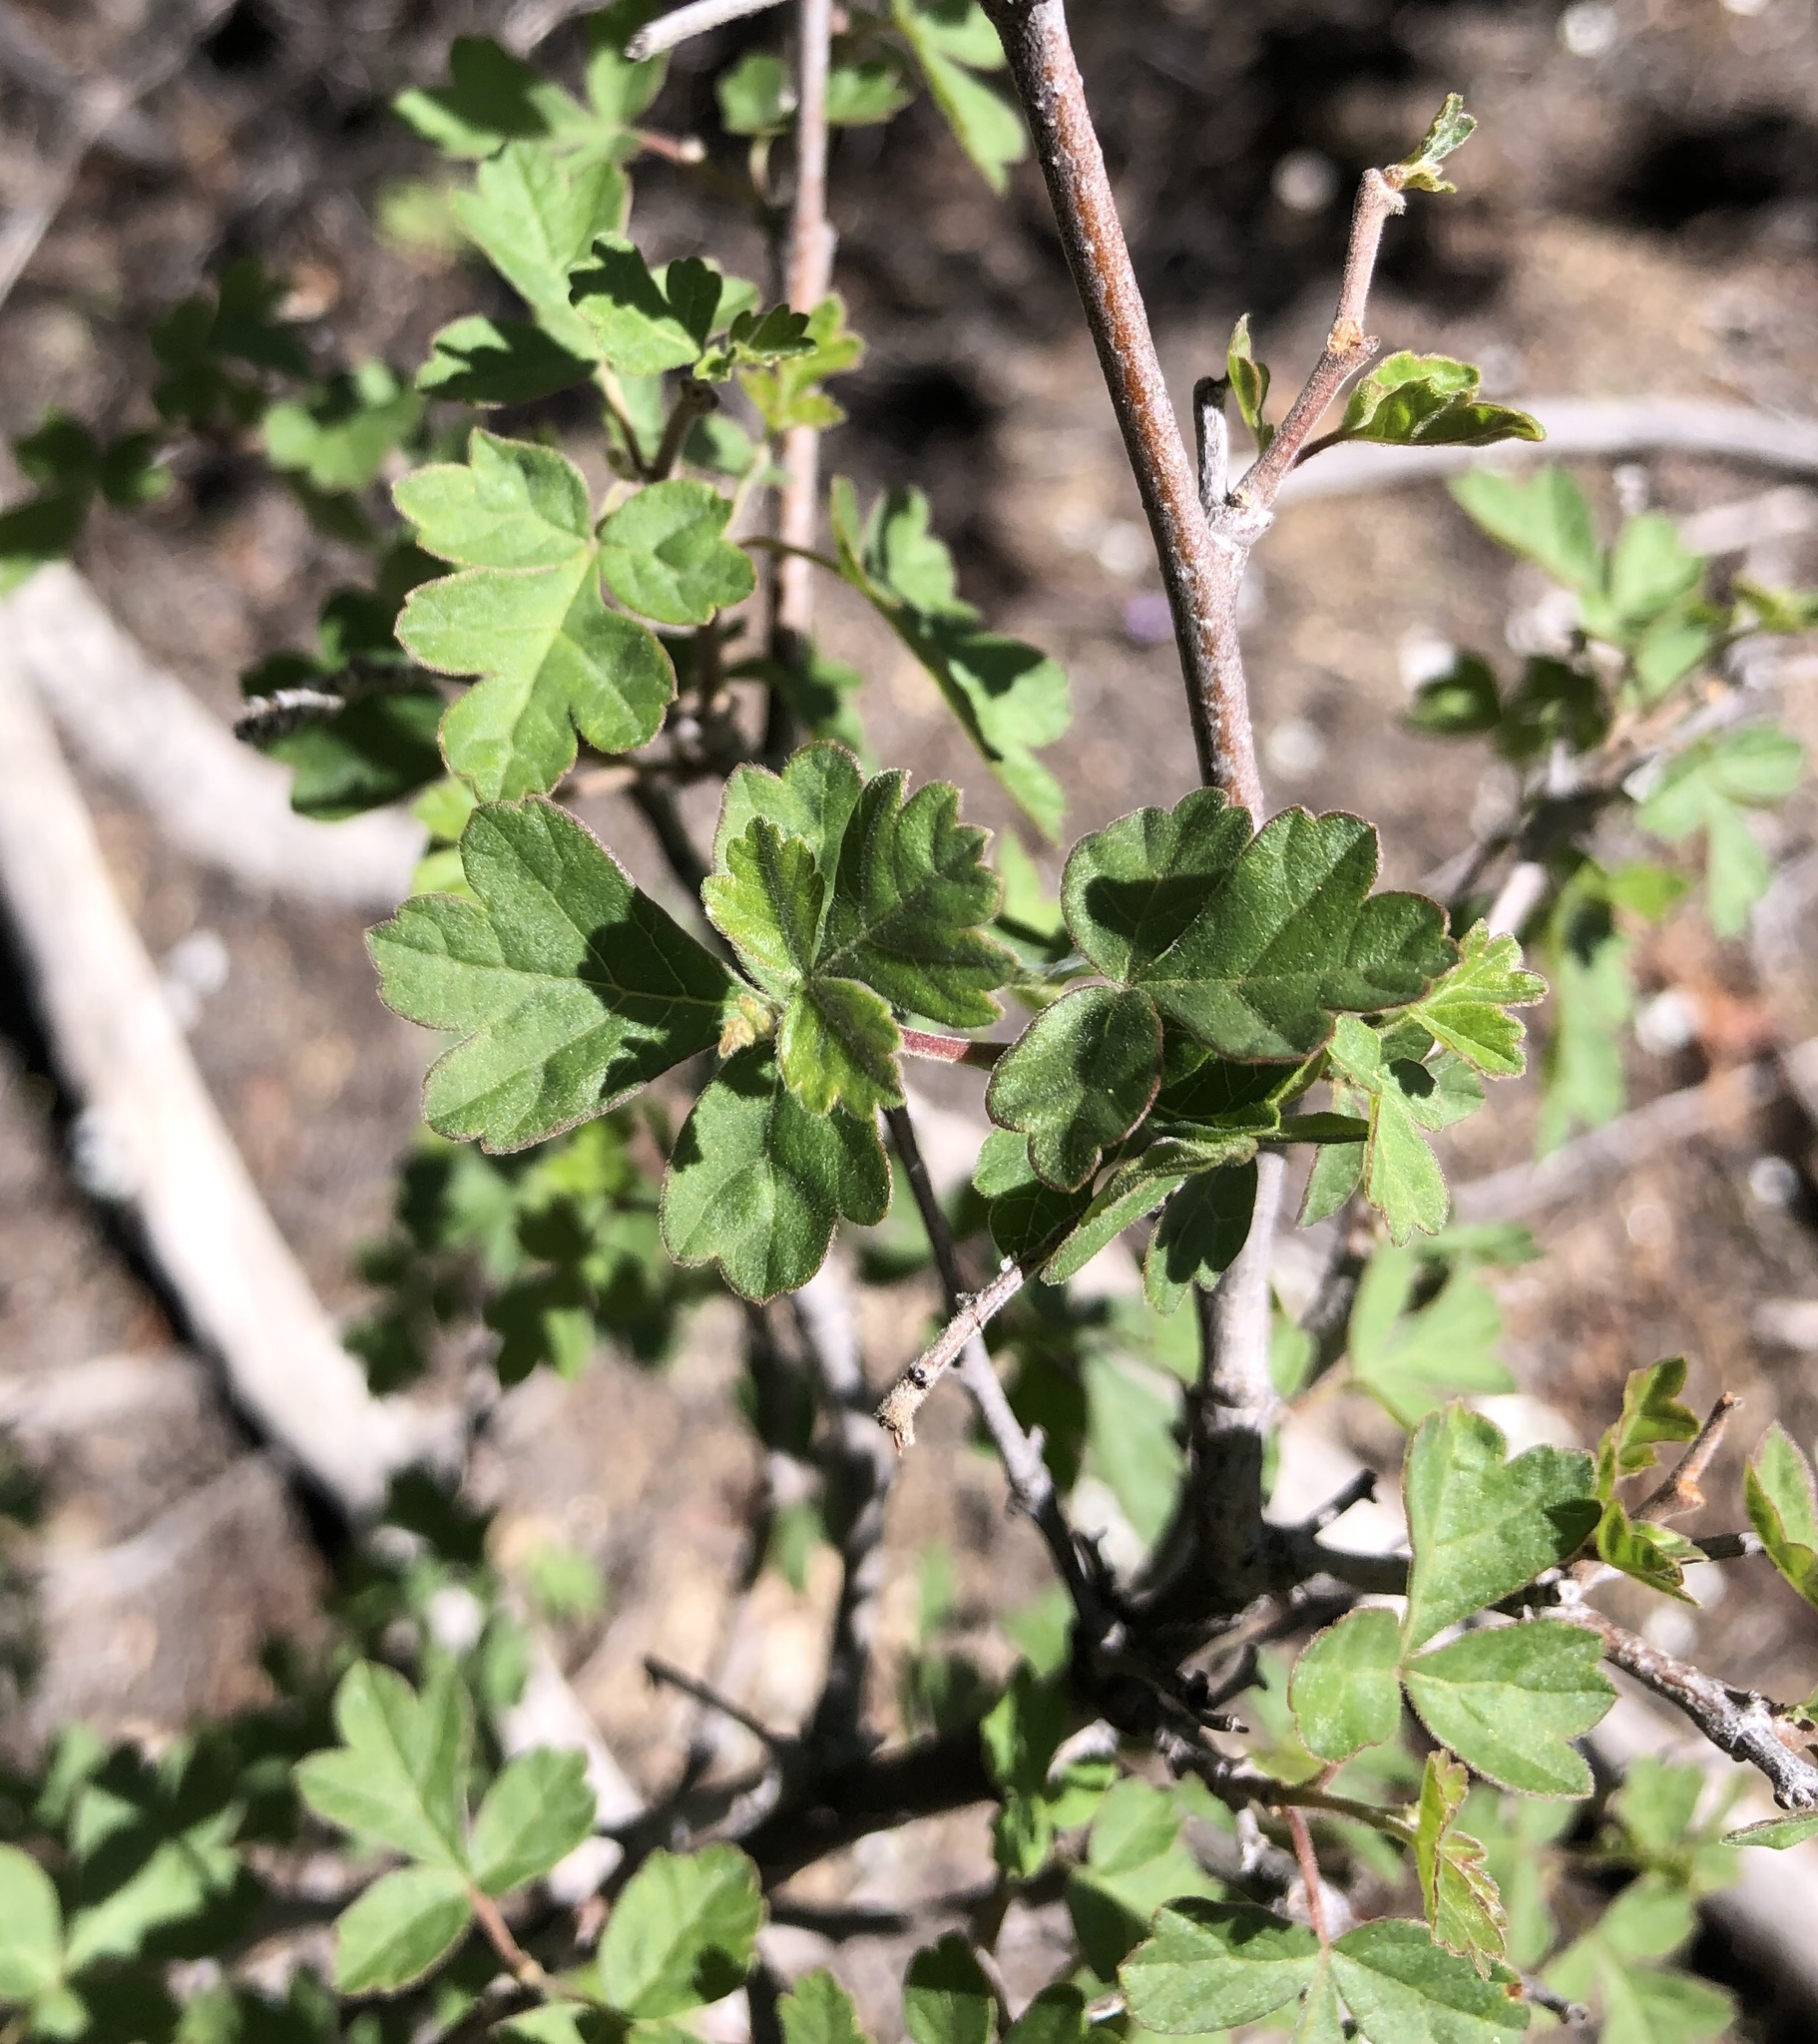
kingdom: Plantae
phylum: Tracheophyta
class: Magnoliopsida
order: Sapindales
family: Anacardiaceae
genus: Rhus
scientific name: Rhus aromatica
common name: Aromatic sumac
